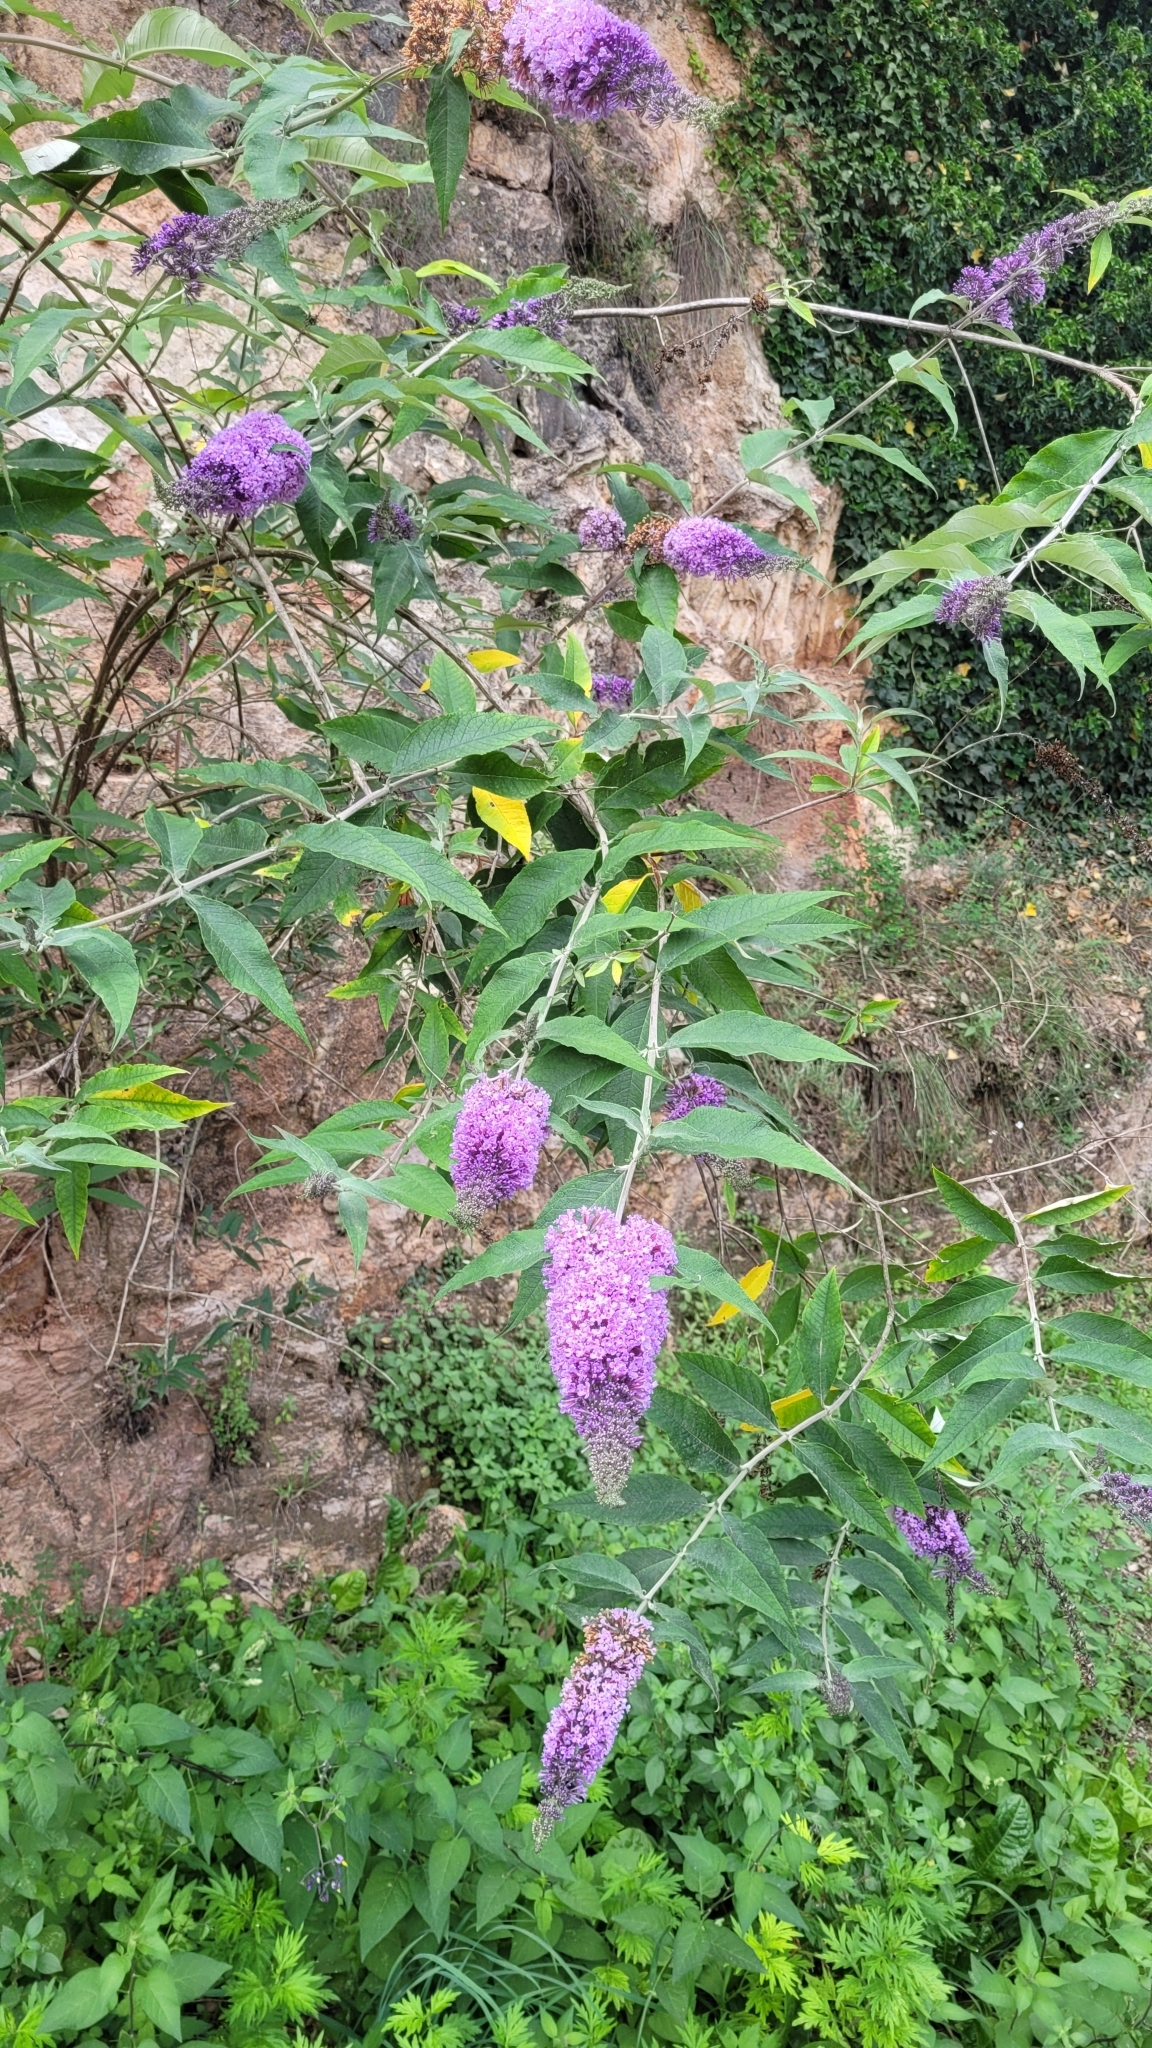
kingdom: Plantae
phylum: Tracheophyta
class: Magnoliopsida
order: Lamiales
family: Scrophulariaceae
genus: Buddleja
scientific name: Buddleja davidii
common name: Butterfly-bush
